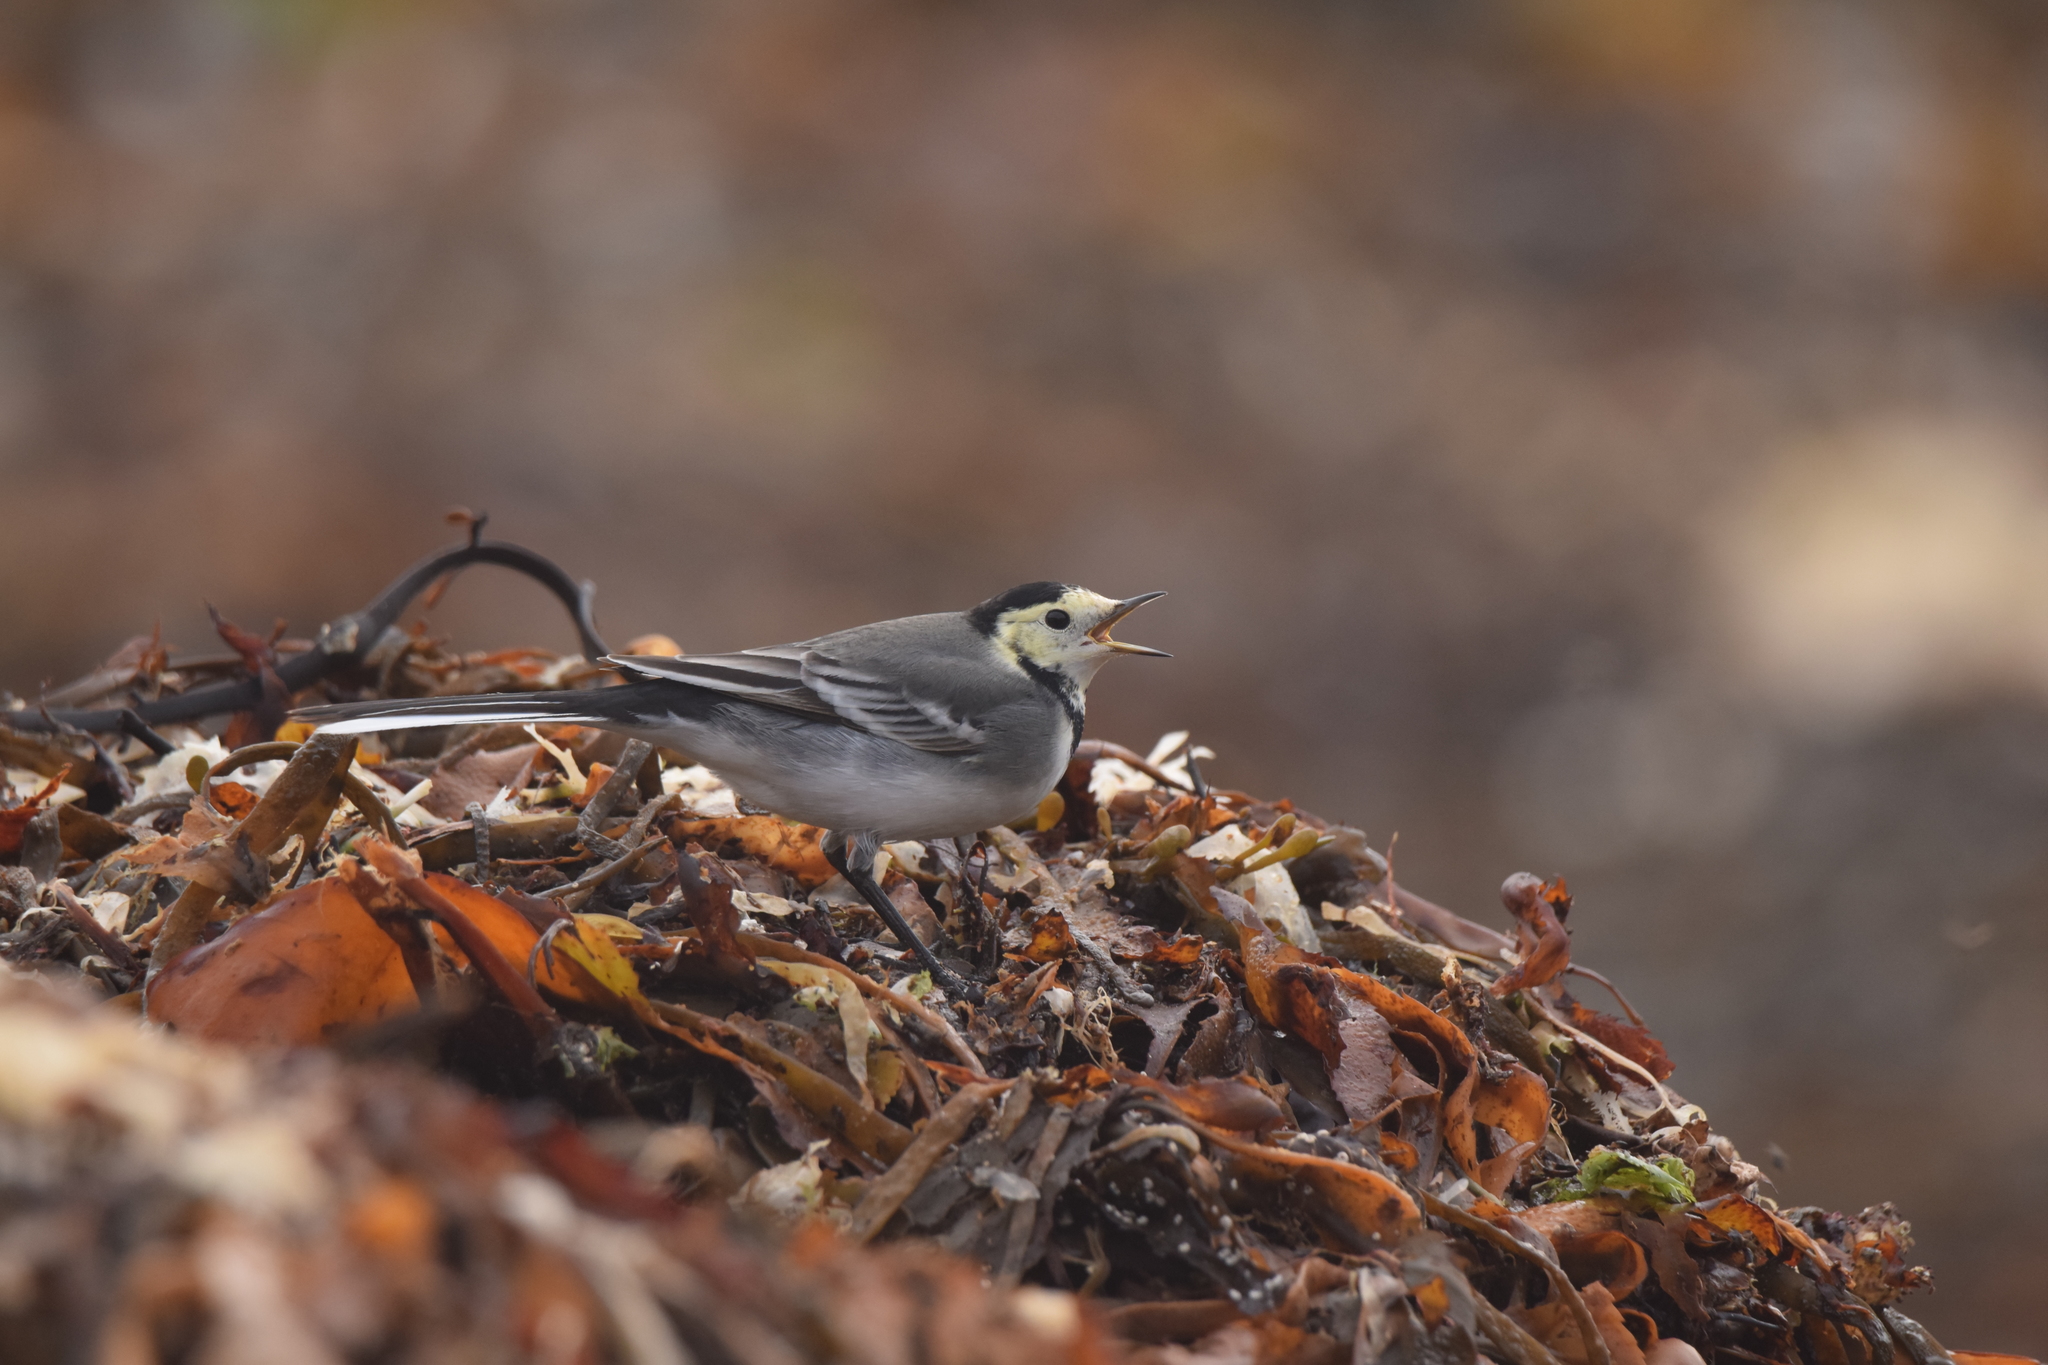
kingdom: Animalia
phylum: Chordata
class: Aves
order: Passeriformes
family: Motacillidae
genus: Motacilla
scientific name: Motacilla alba
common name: White wagtail
